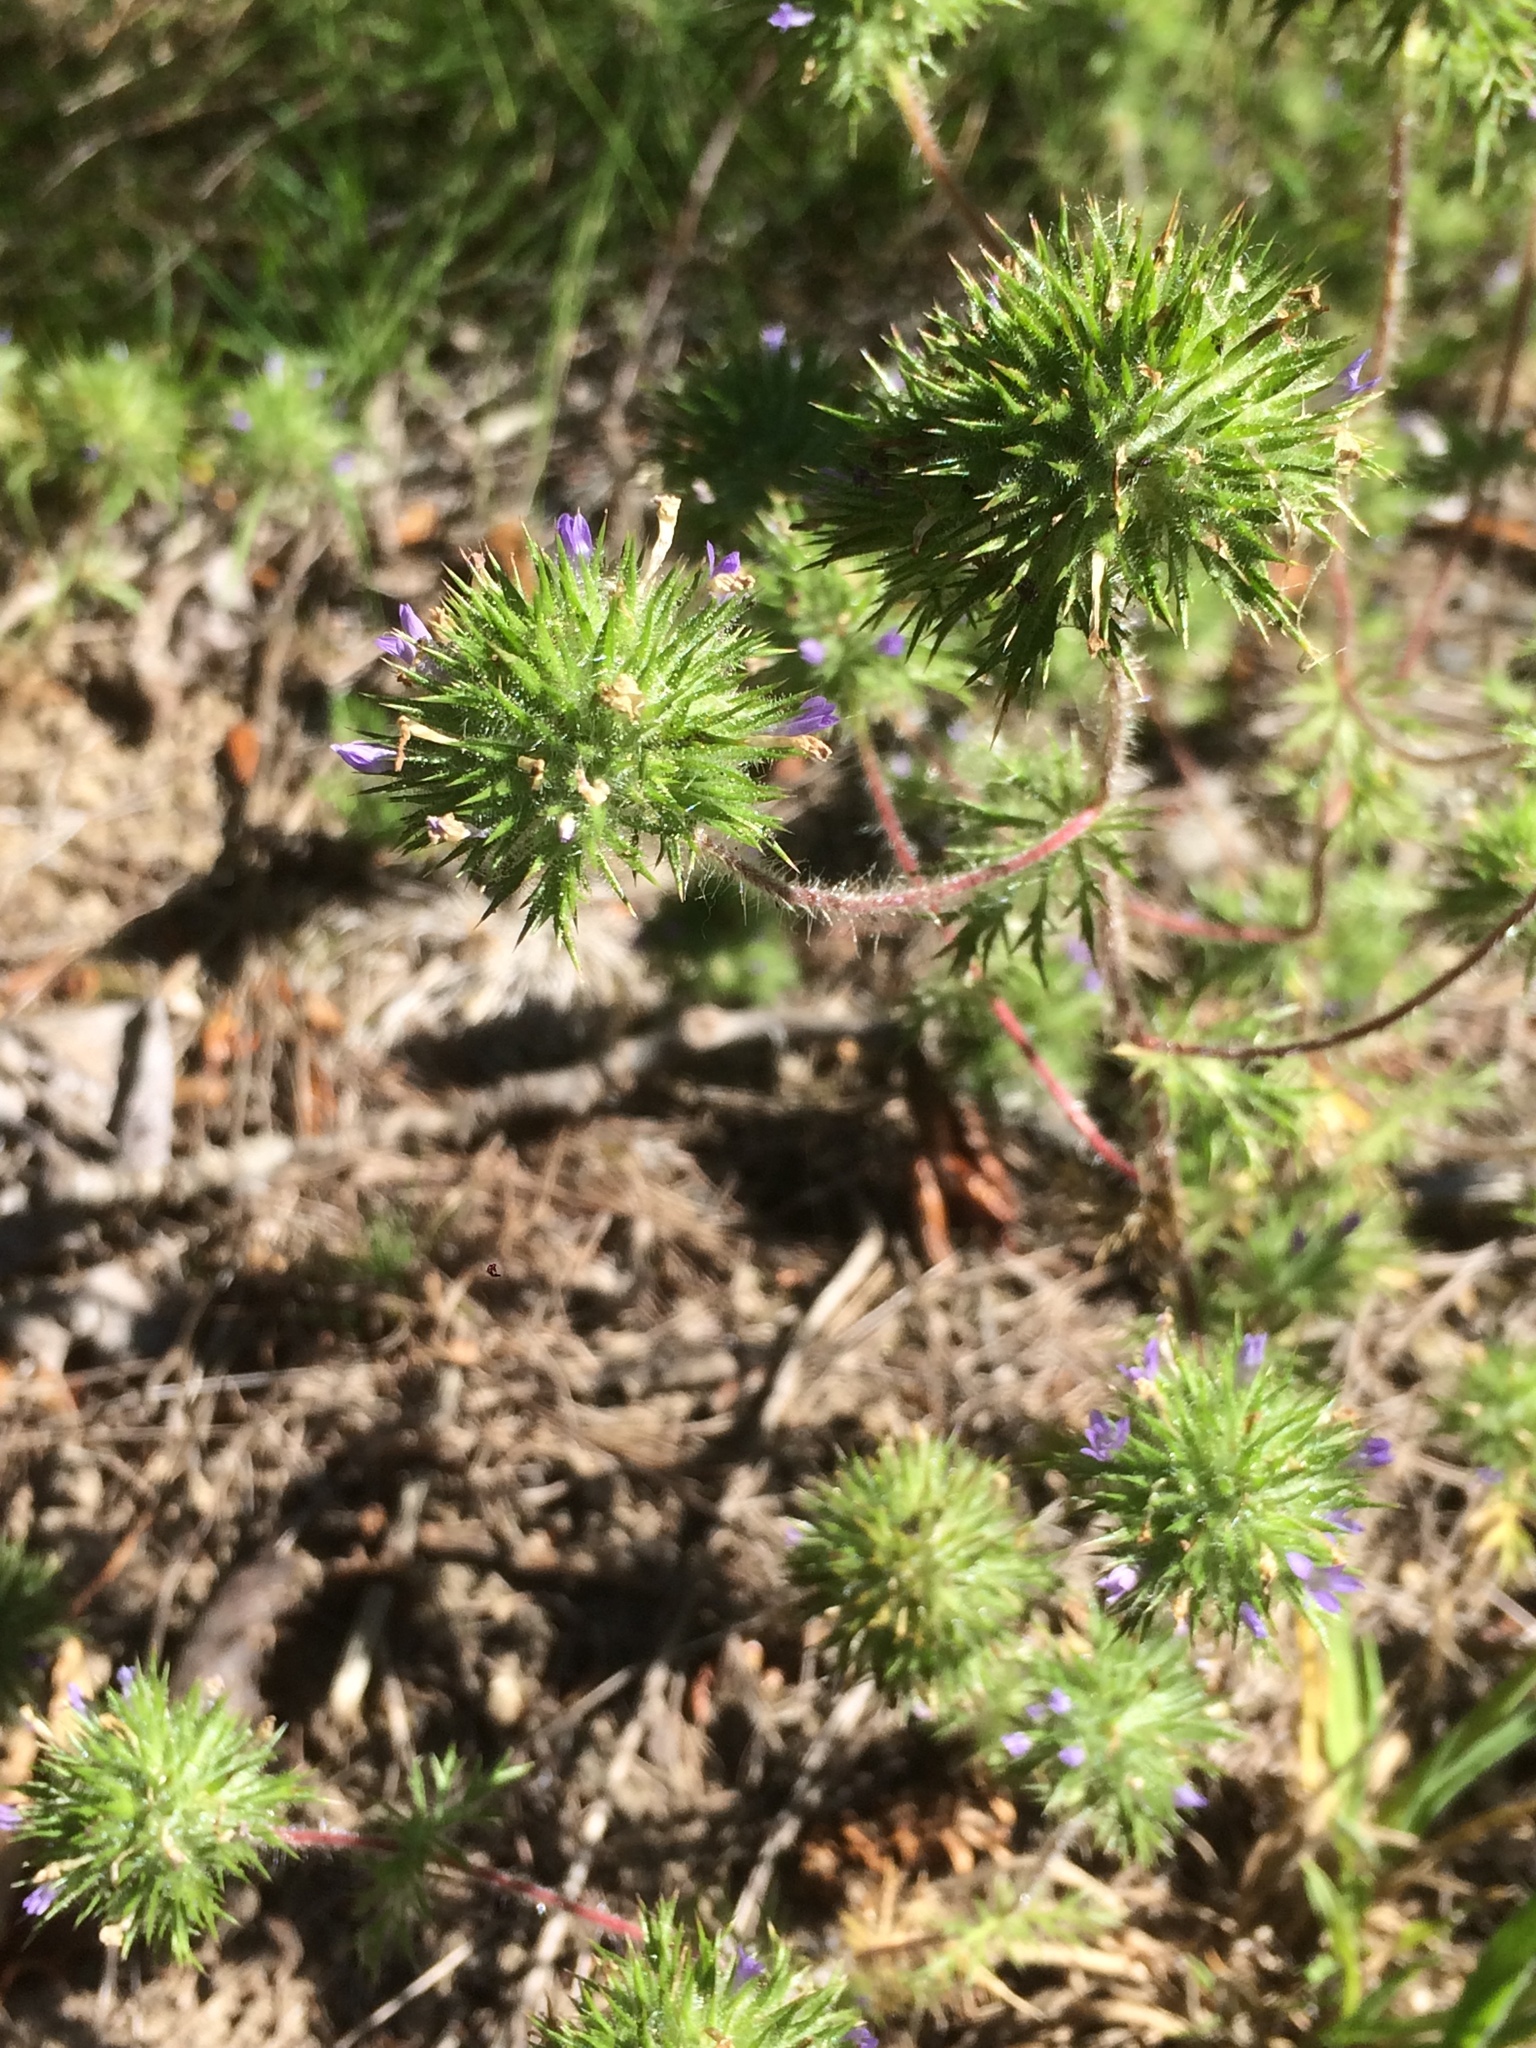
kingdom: Plantae
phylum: Tracheophyta
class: Magnoliopsida
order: Ericales
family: Polemoniaceae
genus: Navarretia
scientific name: Navarretia squarrosa
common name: Skunkweed
